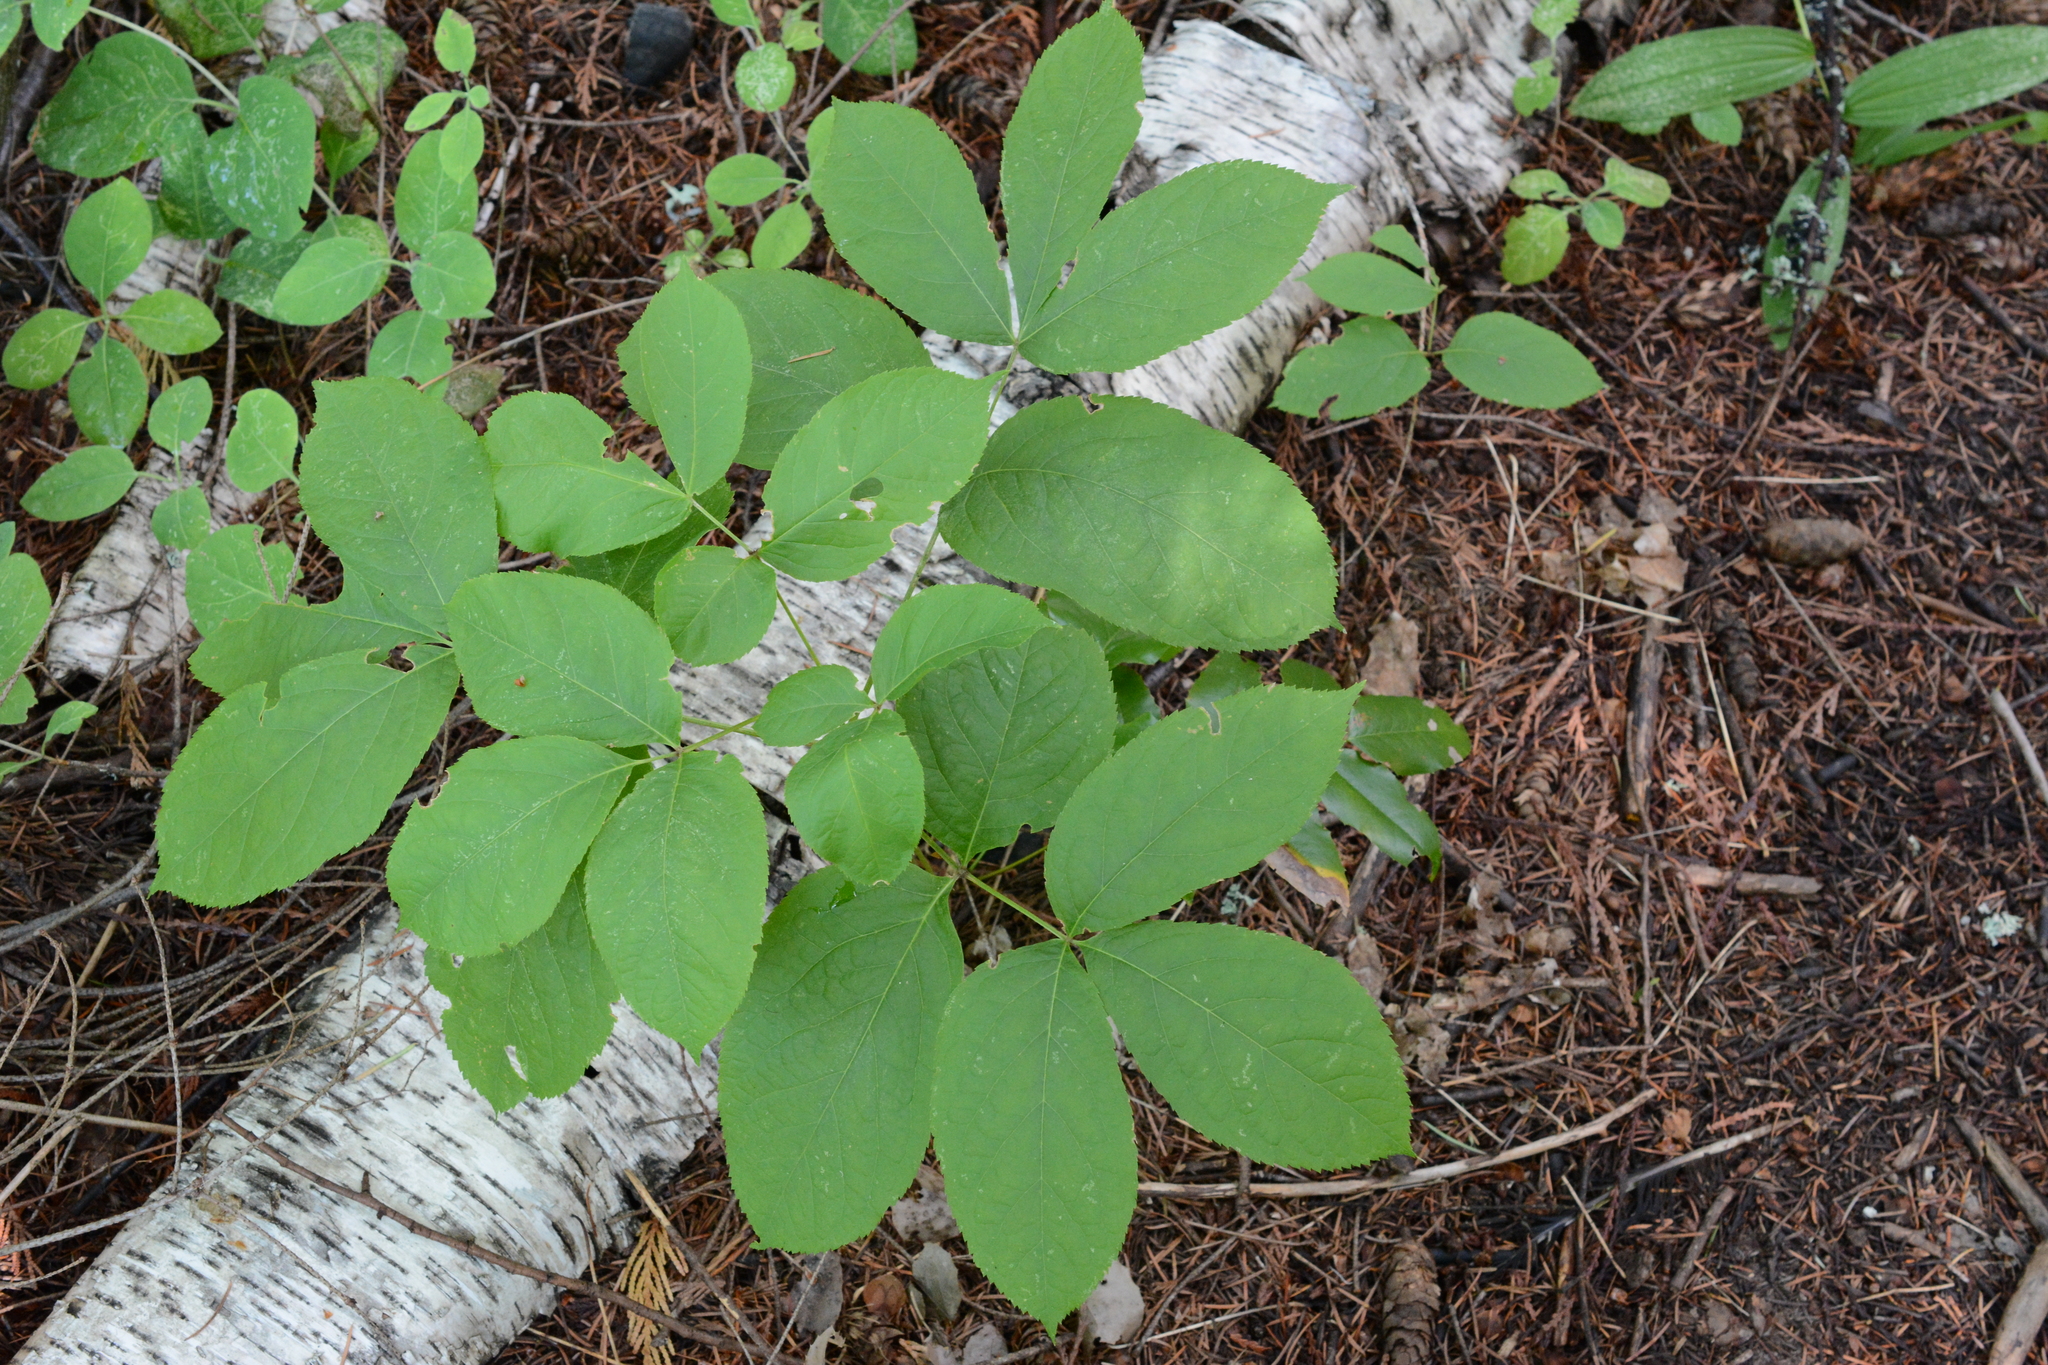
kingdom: Plantae
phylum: Tracheophyta
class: Magnoliopsida
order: Apiales
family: Araliaceae
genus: Aralia
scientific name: Aralia nudicaulis
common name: Wild sarsaparilla
